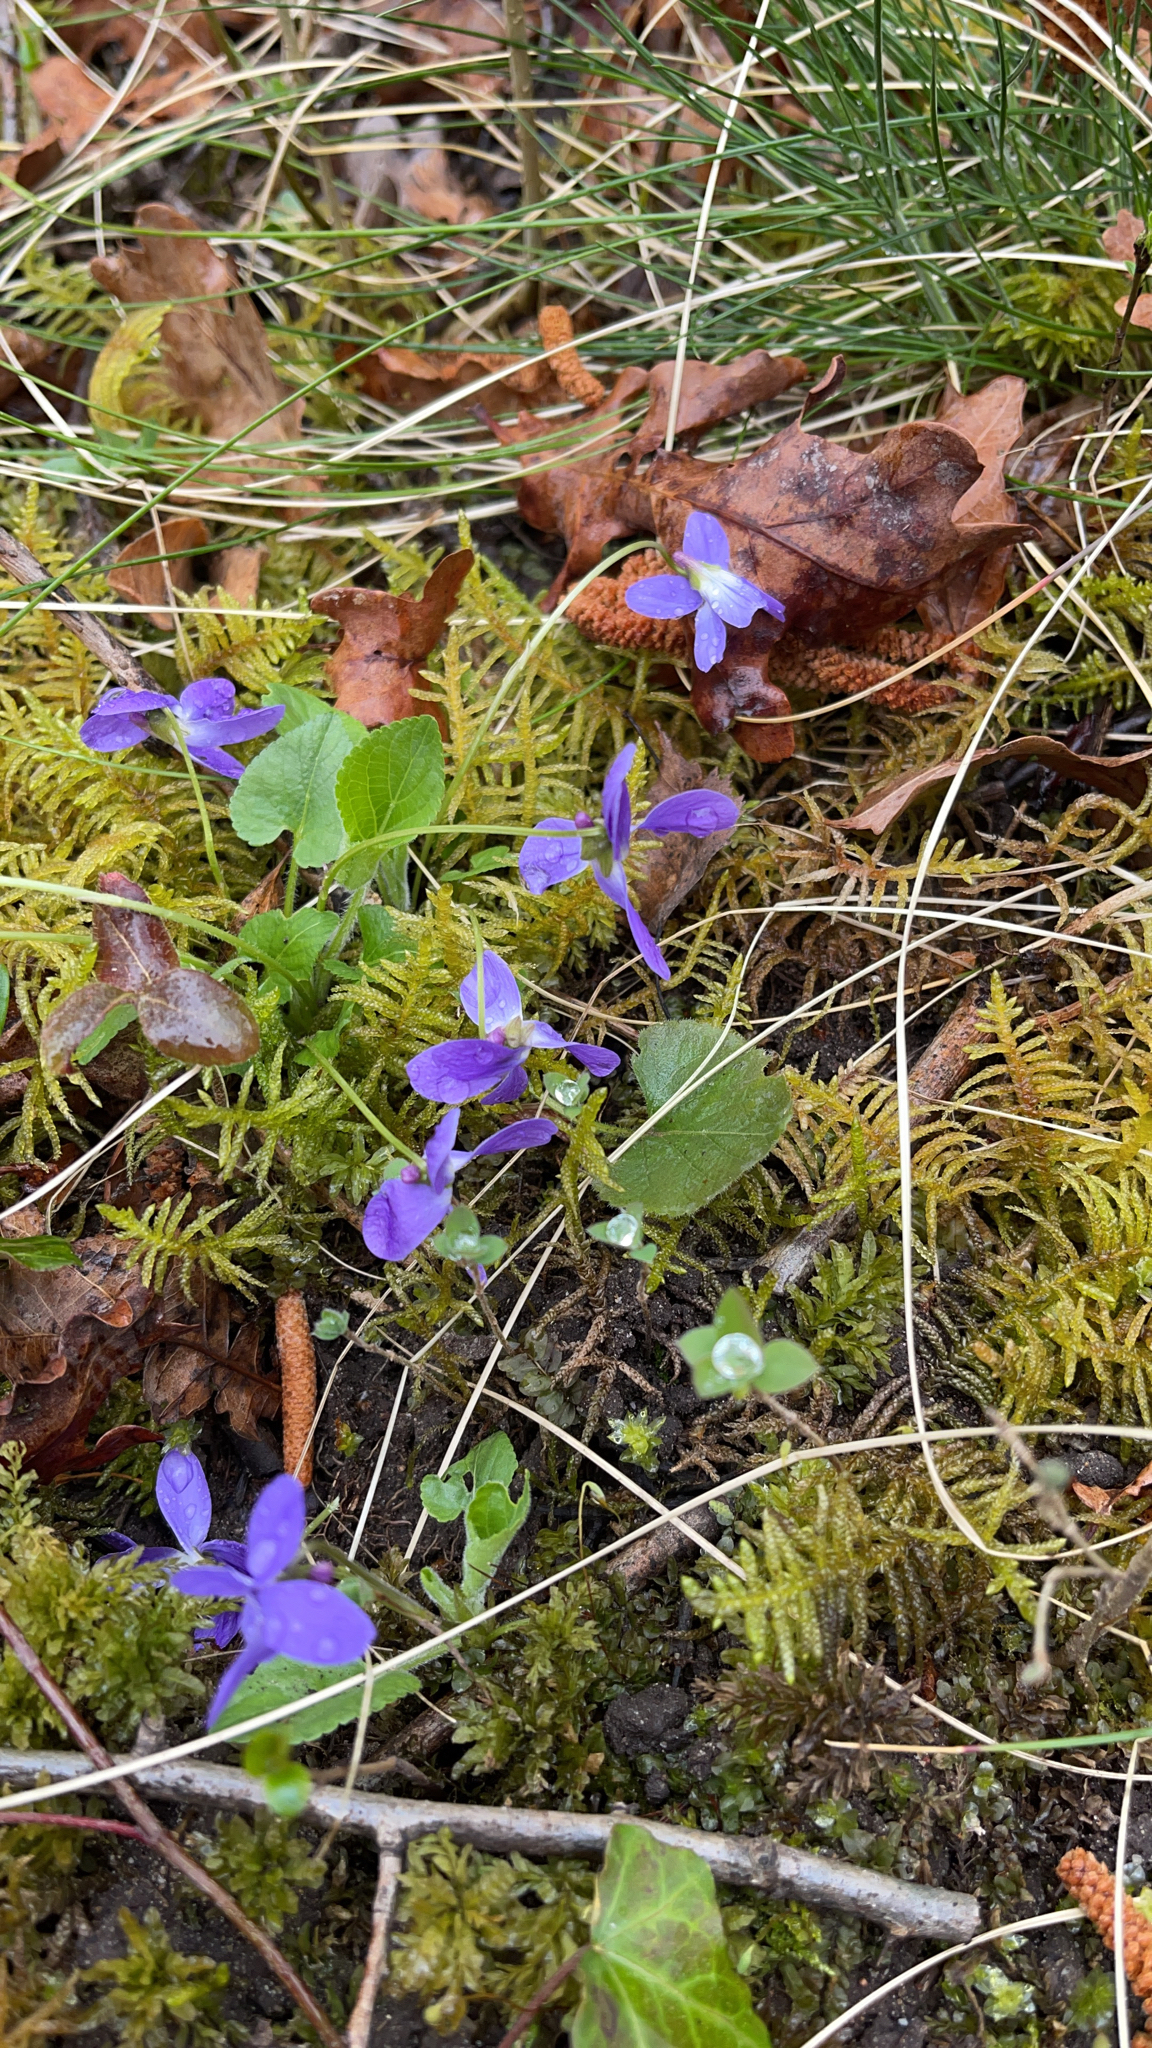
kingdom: Plantae
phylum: Tracheophyta
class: Magnoliopsida
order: Malpighiales
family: Violaceae
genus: Viola
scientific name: Viola hirta
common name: Hairy violet
